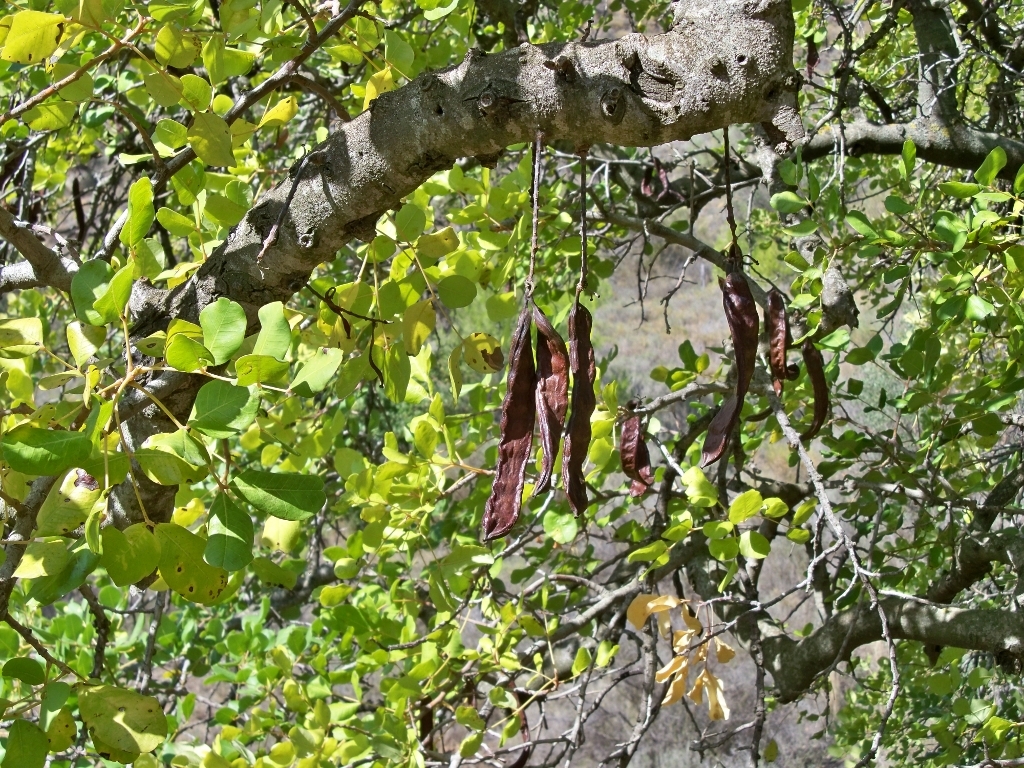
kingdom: Plantae
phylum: Tracheophyta
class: Magnoliopsida
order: Fabales
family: Fabaceae
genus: Ceratonia
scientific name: Ceratonia siliqua
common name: Carob
